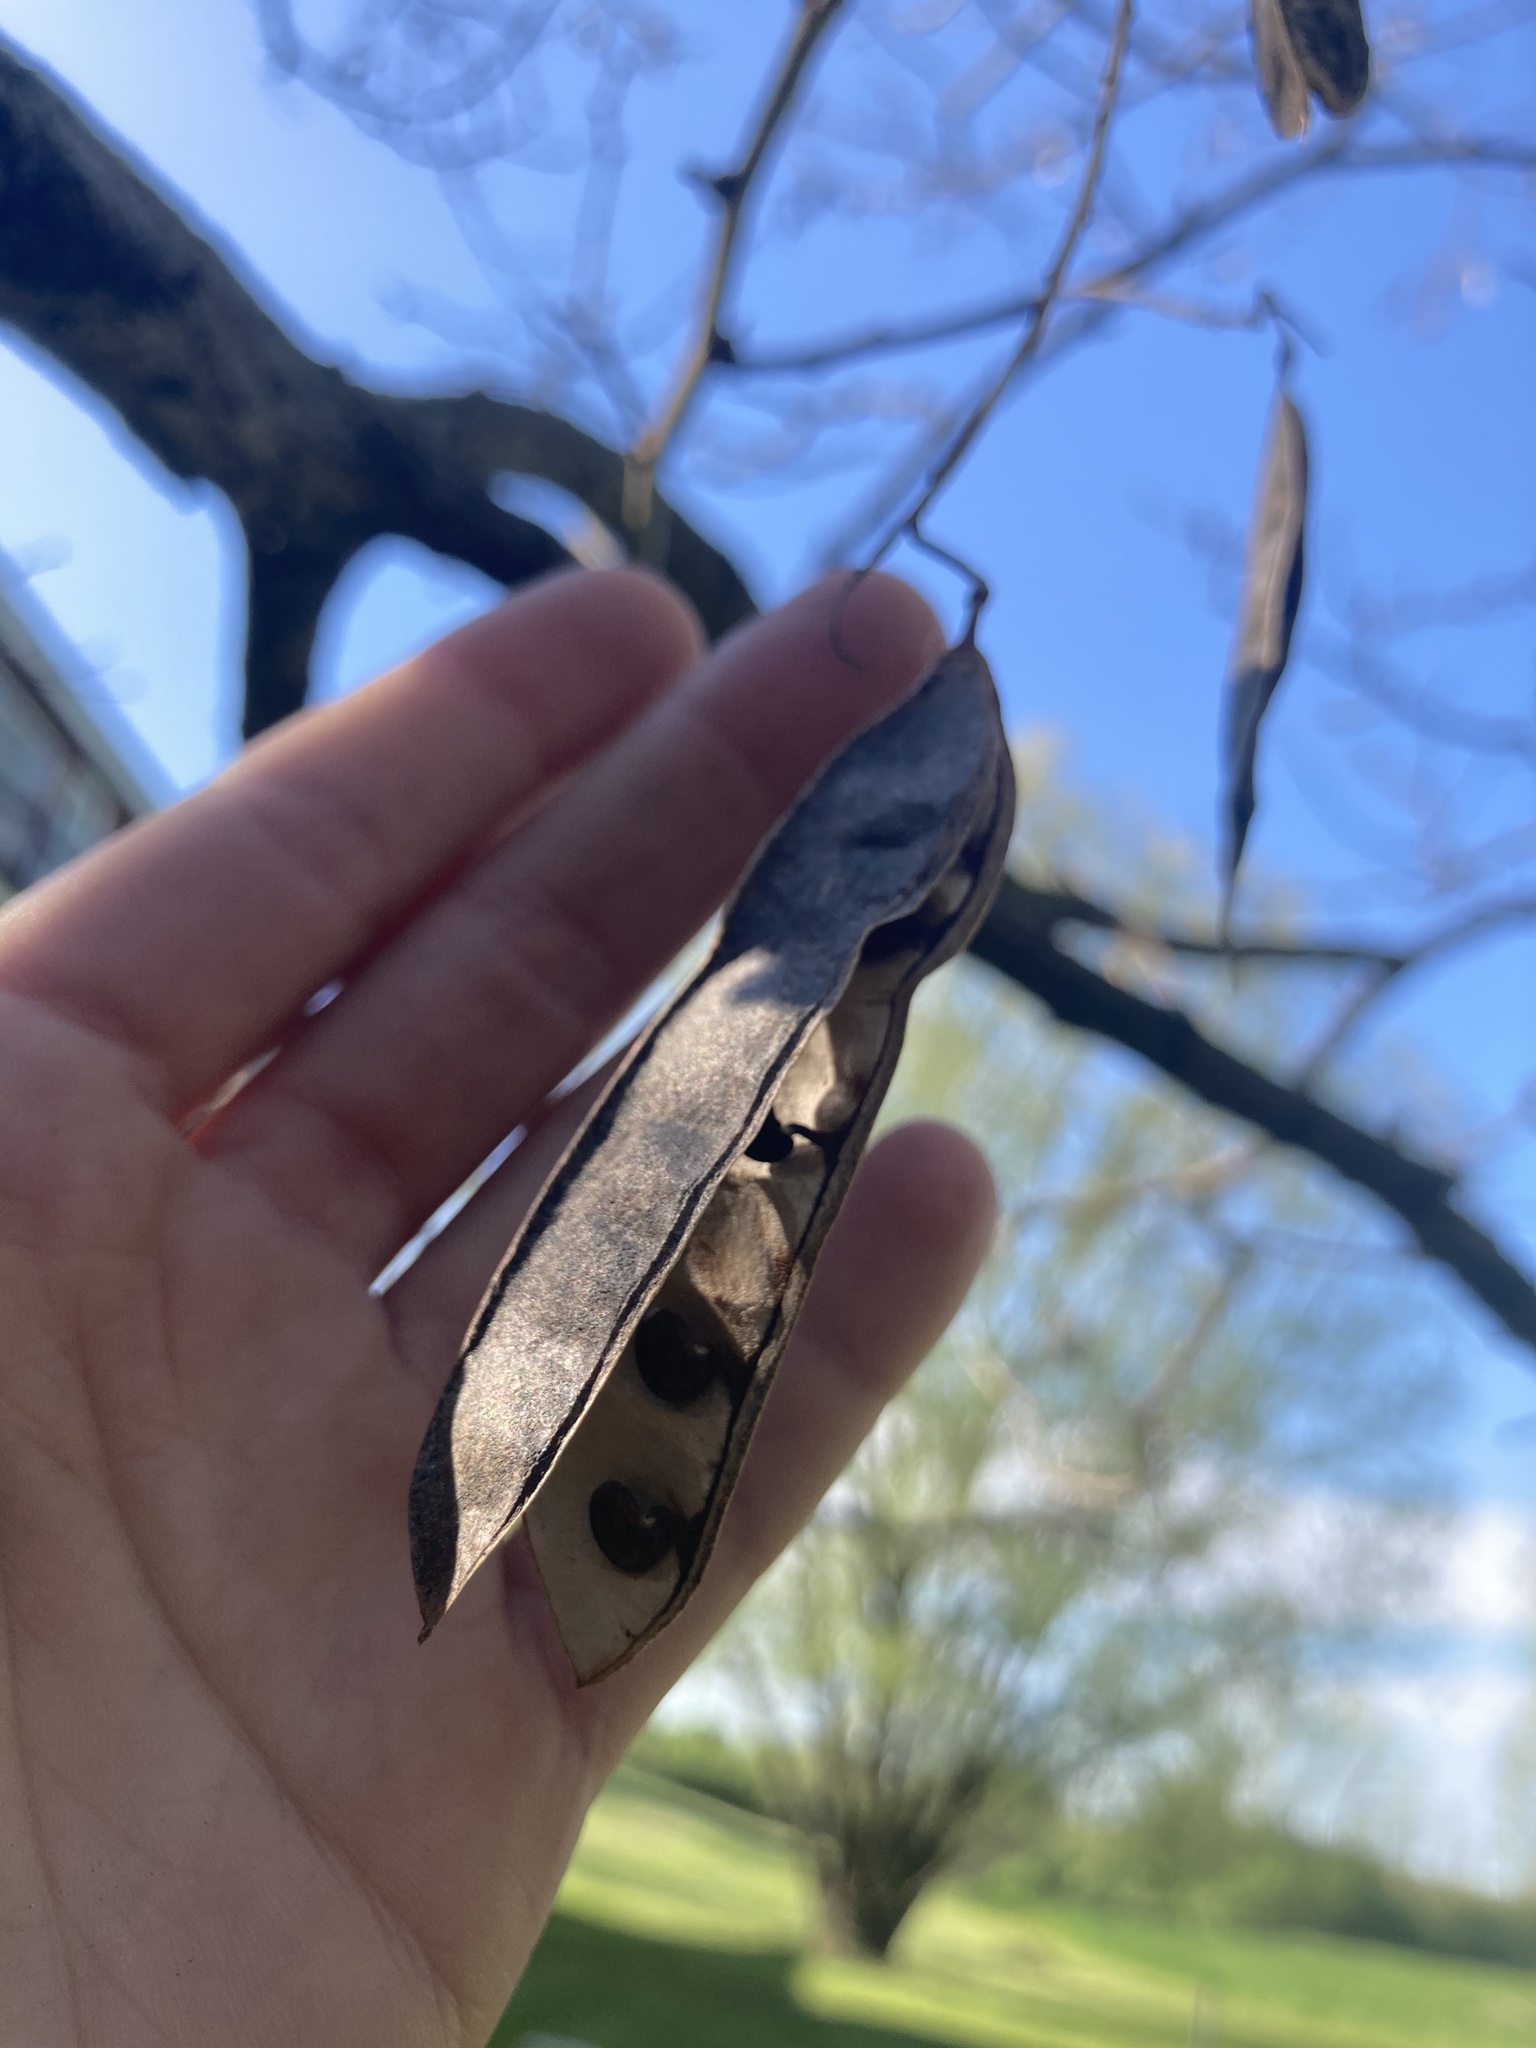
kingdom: Plantae
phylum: Tracheophyta
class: Magnoliopsida
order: Fabales
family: Fabaceae
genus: Robinia
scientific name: Robinia pseudoacacia
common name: Black locust
